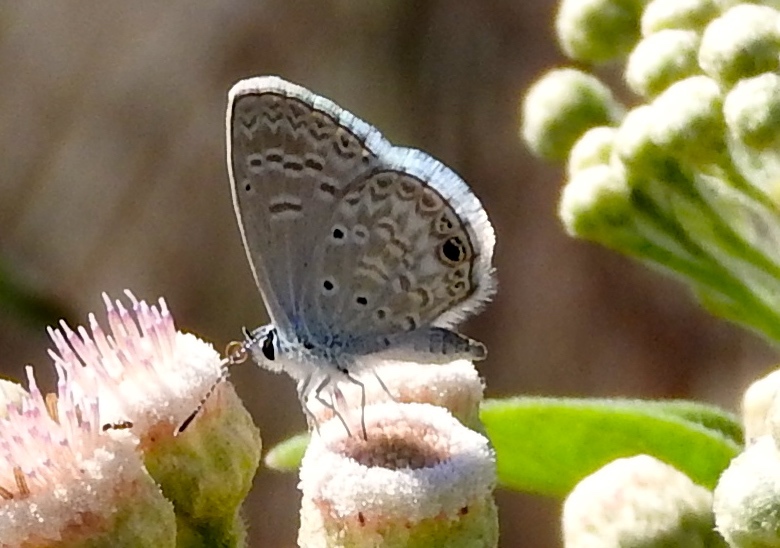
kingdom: Animalia
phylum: Arthropoda
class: Insecta
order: Lepidoptera
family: Lycaenidae
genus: Echinargus
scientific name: Echinargus isola
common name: Reakirt's blue
